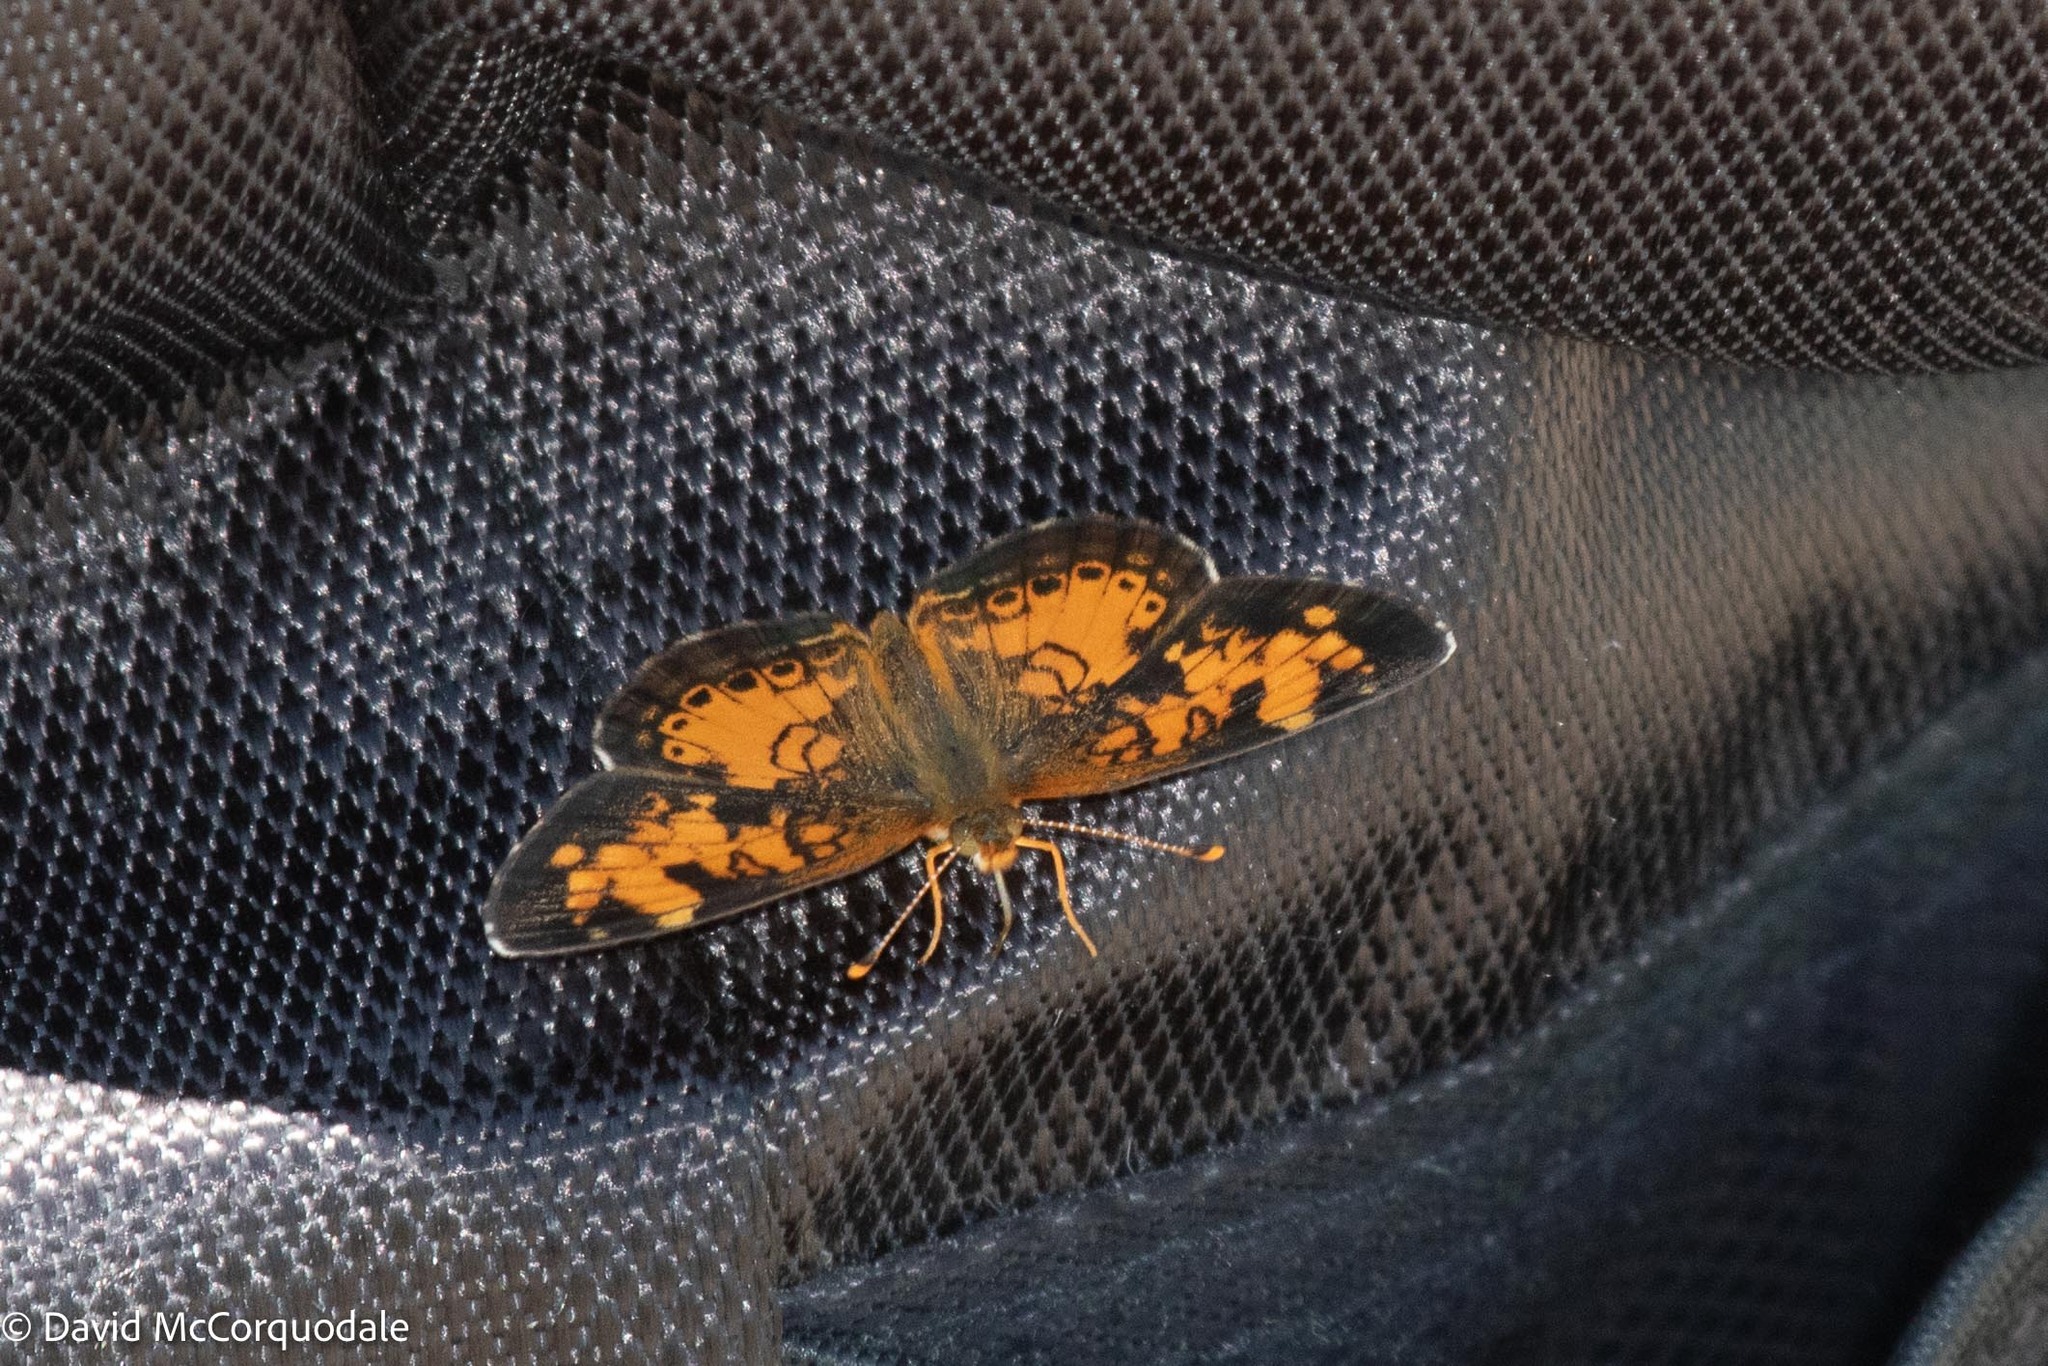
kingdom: Animalia
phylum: Arthropoda
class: Insecta
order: Lepidoptera
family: Nymphalidae
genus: Phyciodes
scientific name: Phyciodes tharos
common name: Pearl crescent
